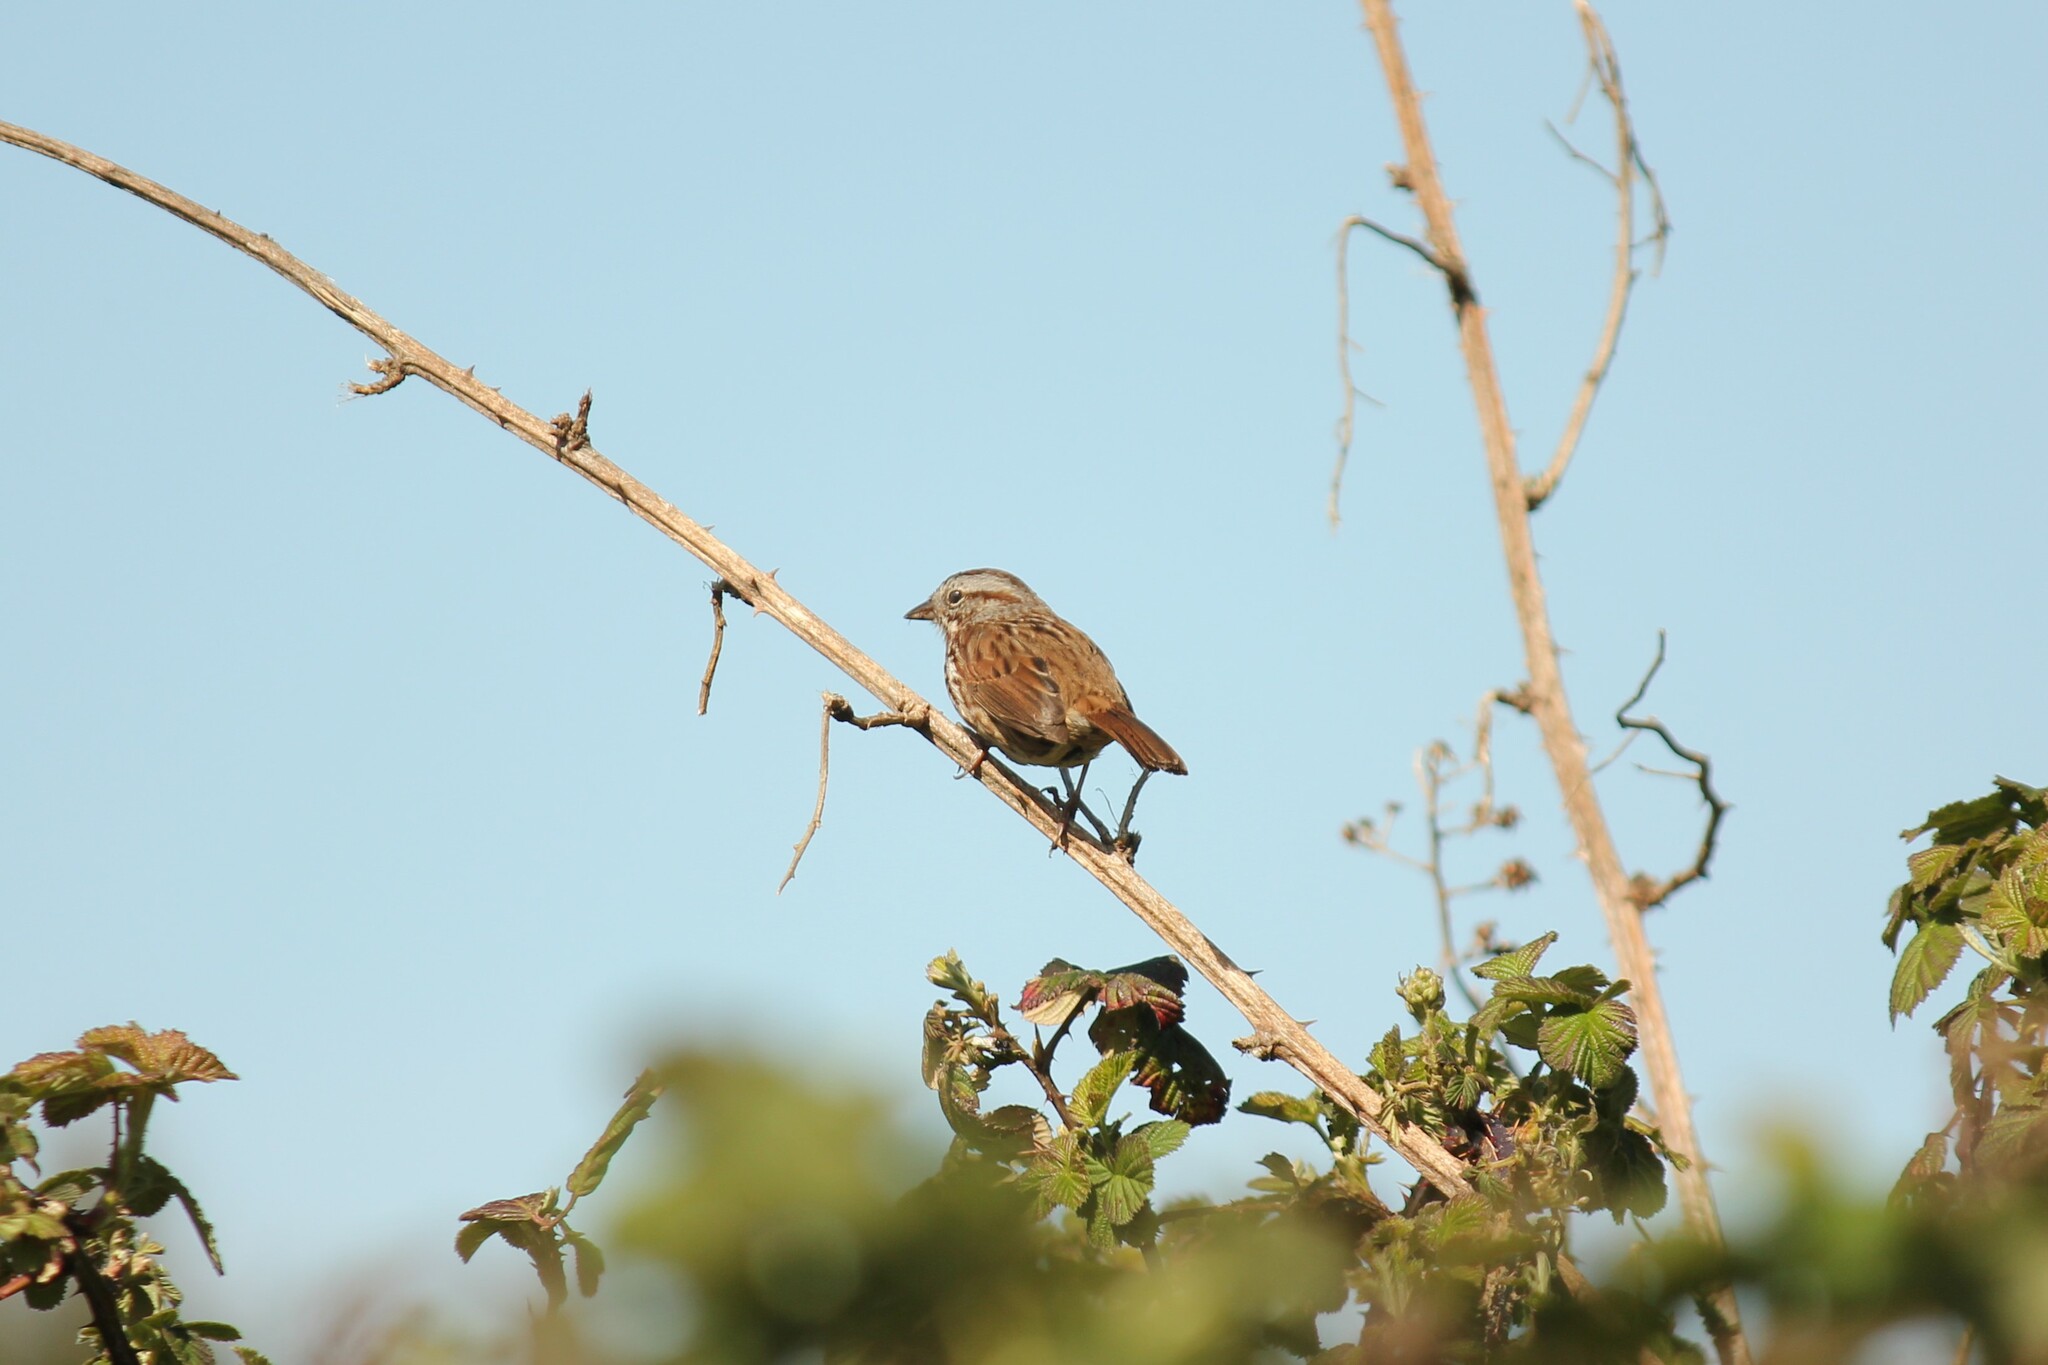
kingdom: Animalia
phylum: Chordata
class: Aves
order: Passeriformes
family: Passerellidae
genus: Melospiza
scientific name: Melospiza melodia
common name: Song sparrow
